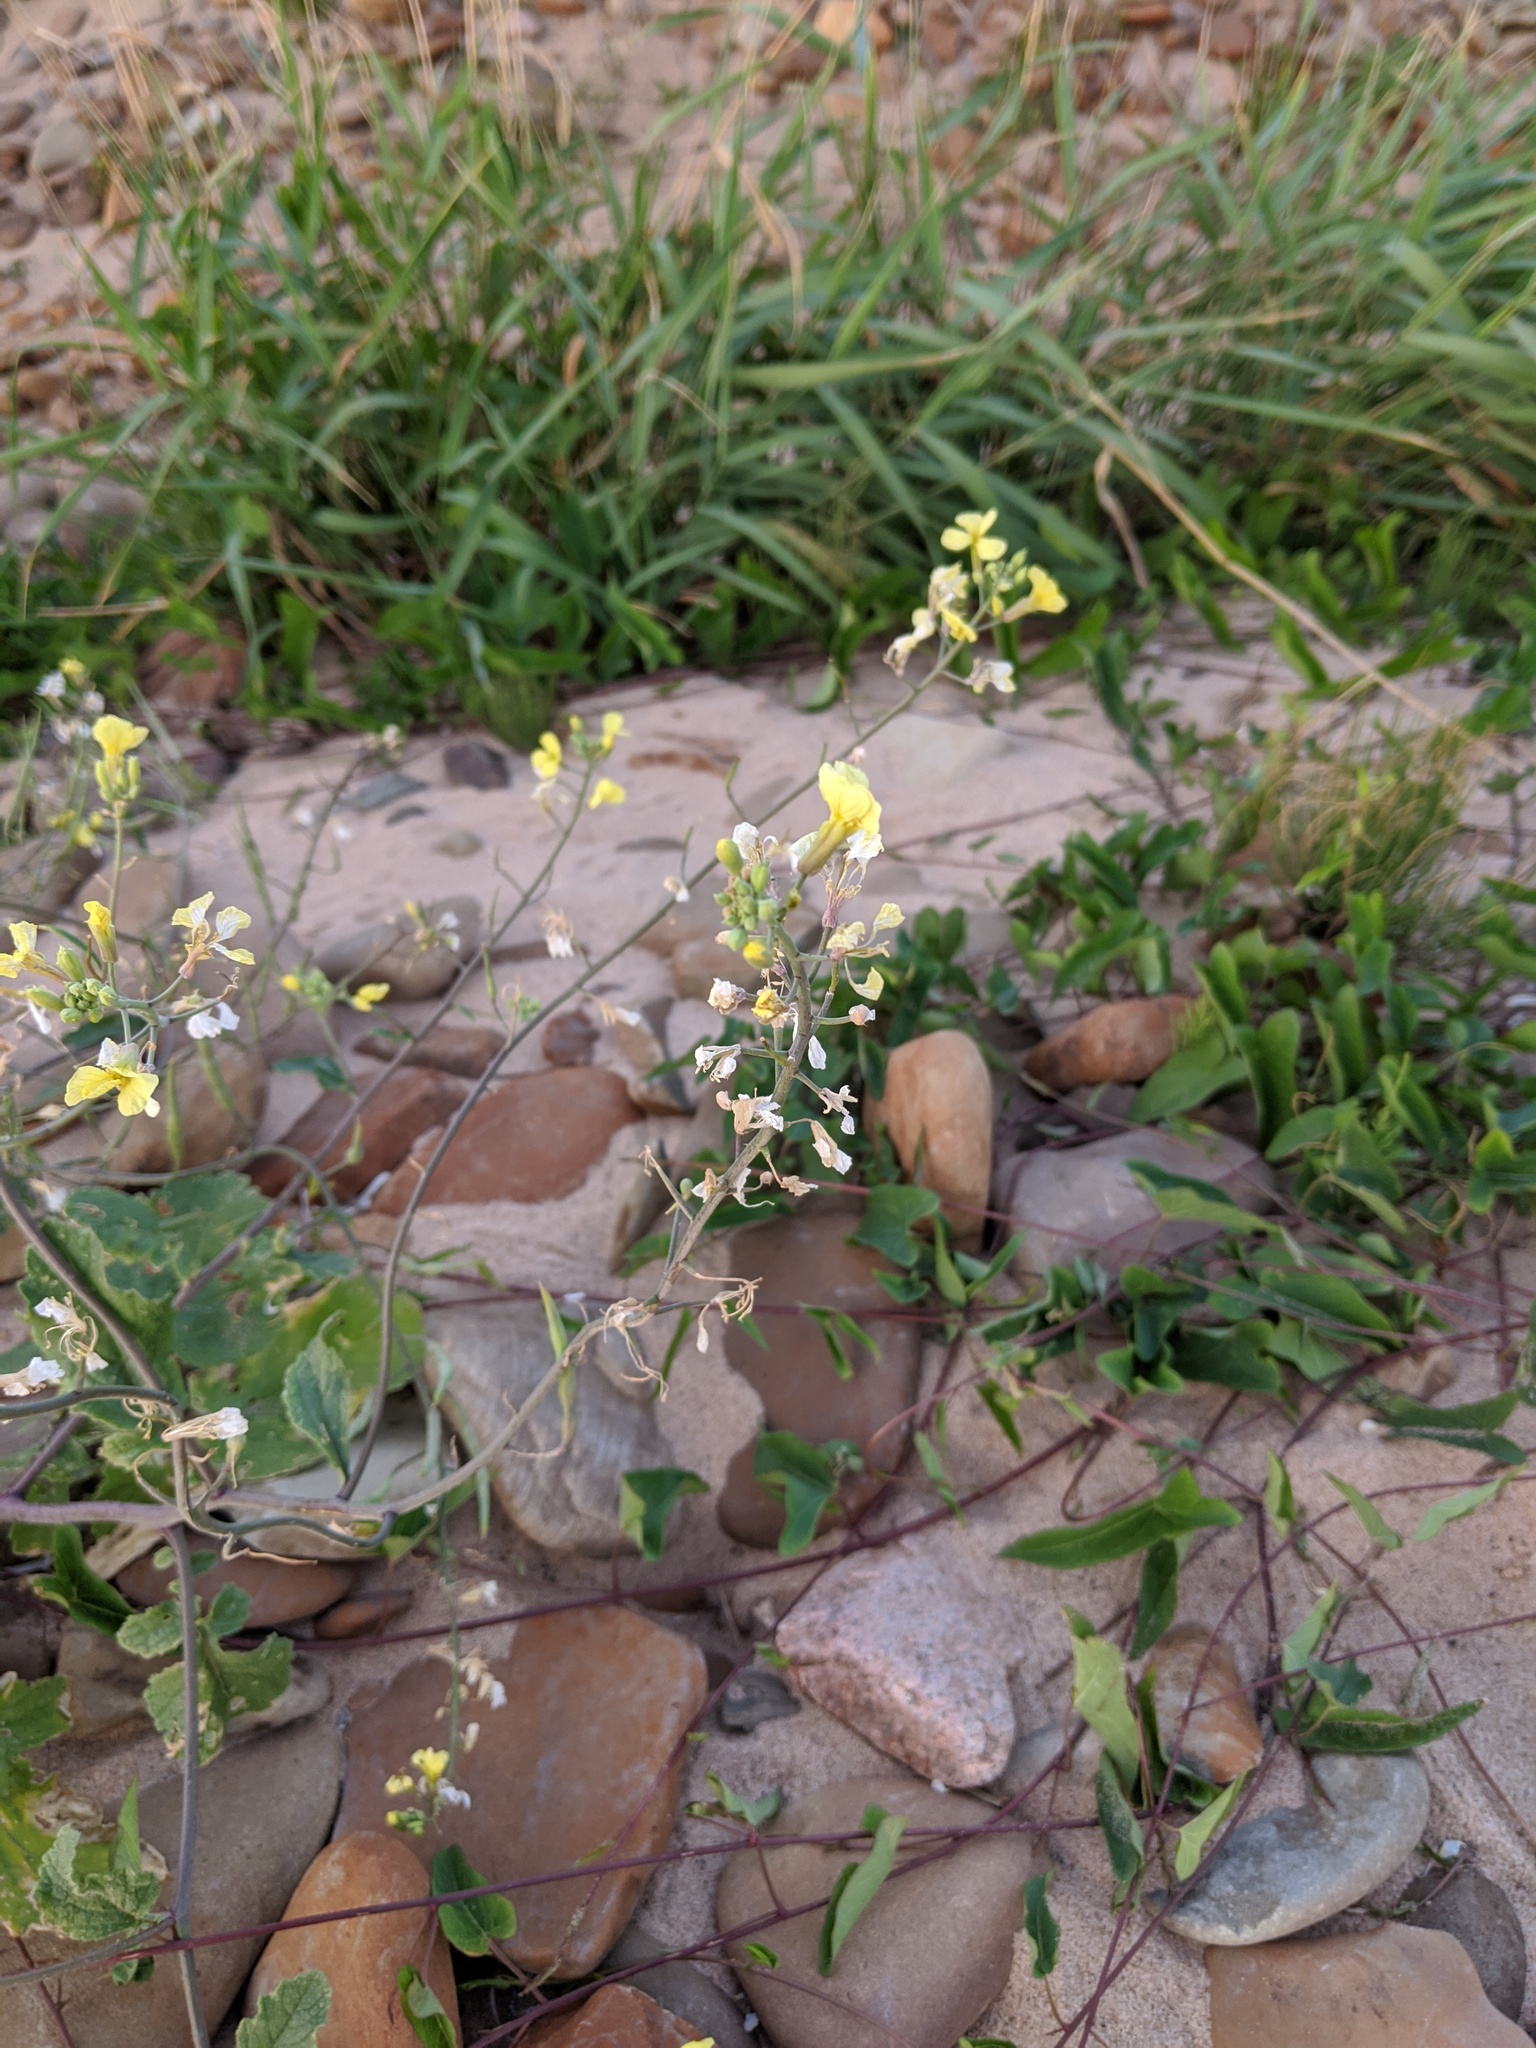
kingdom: Plantae
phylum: Tracheophyta
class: Magnoliopsida
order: Brassicales
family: Brassicaceae
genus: Raphanus
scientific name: Raphanus raphanistrum
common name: Wild radish
